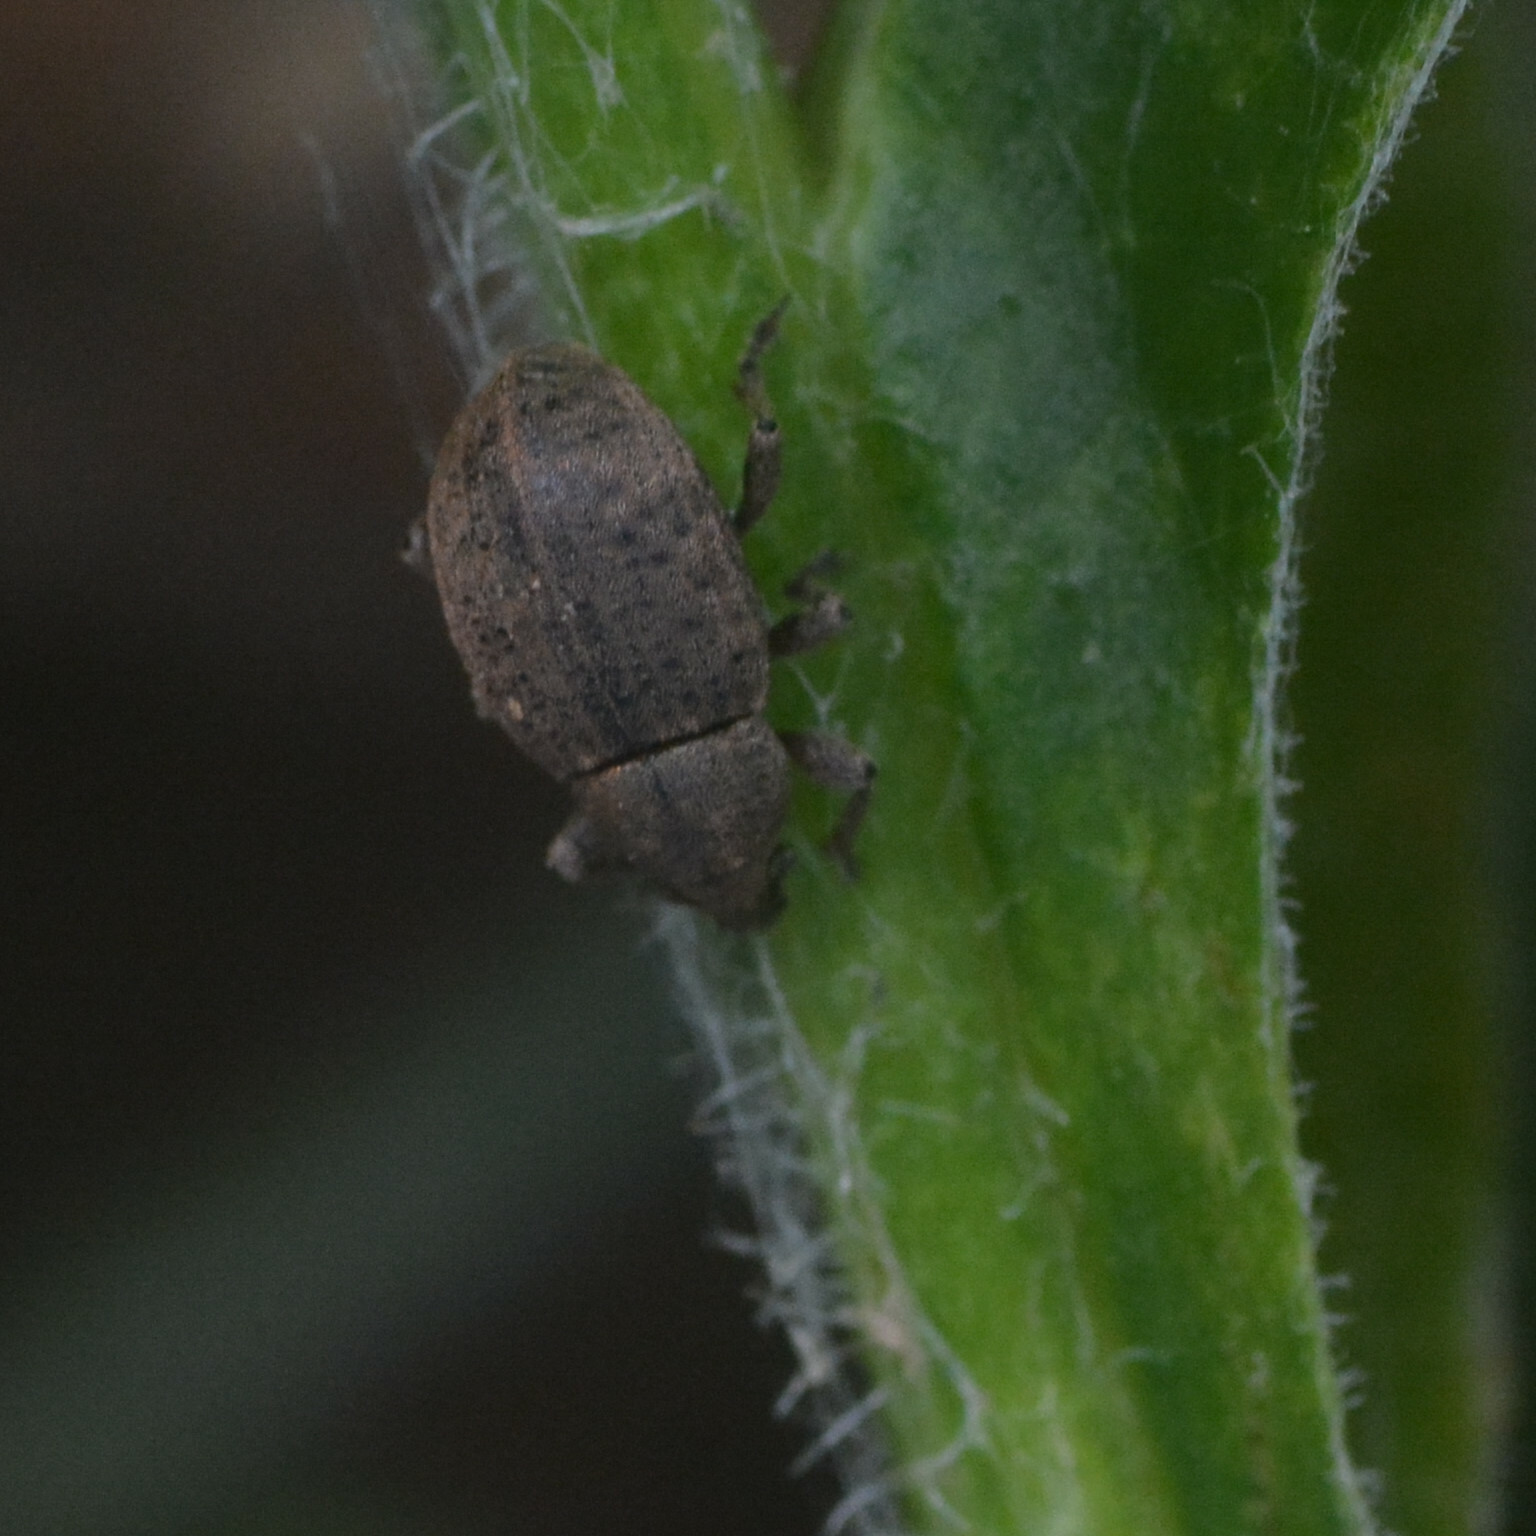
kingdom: Animalia
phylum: Arthropoda
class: Insecta
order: Coleoptera
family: Curculionidae
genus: Tropiphorus
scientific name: Tropiphorus terricola
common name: Weevil
